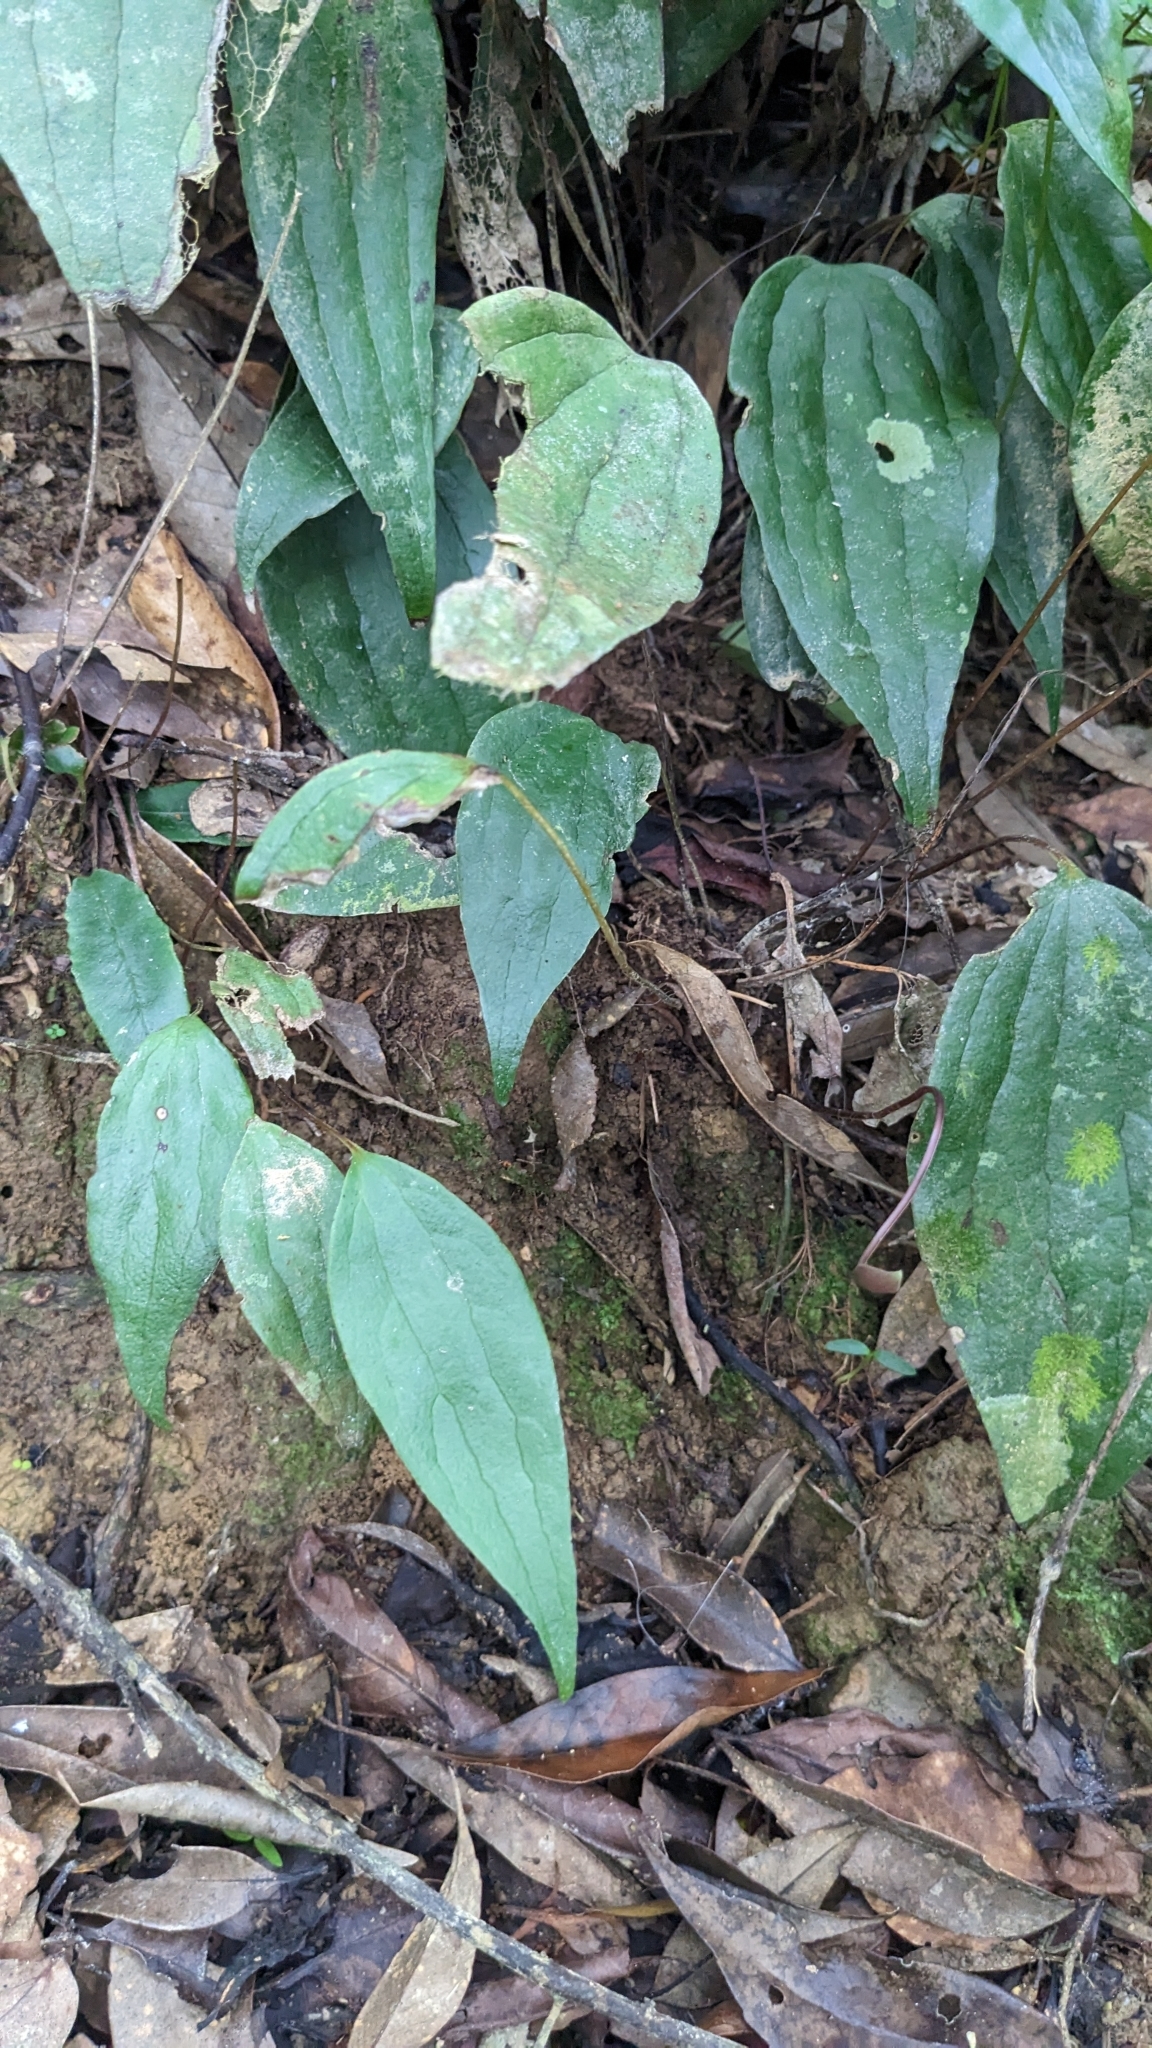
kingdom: Plantae
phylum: Tracheophyta
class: Polypodiopsida
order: Gleicheniales
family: Dipteridaceae
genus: Cheiropleuria
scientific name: Cheiropleuria integrifolia
